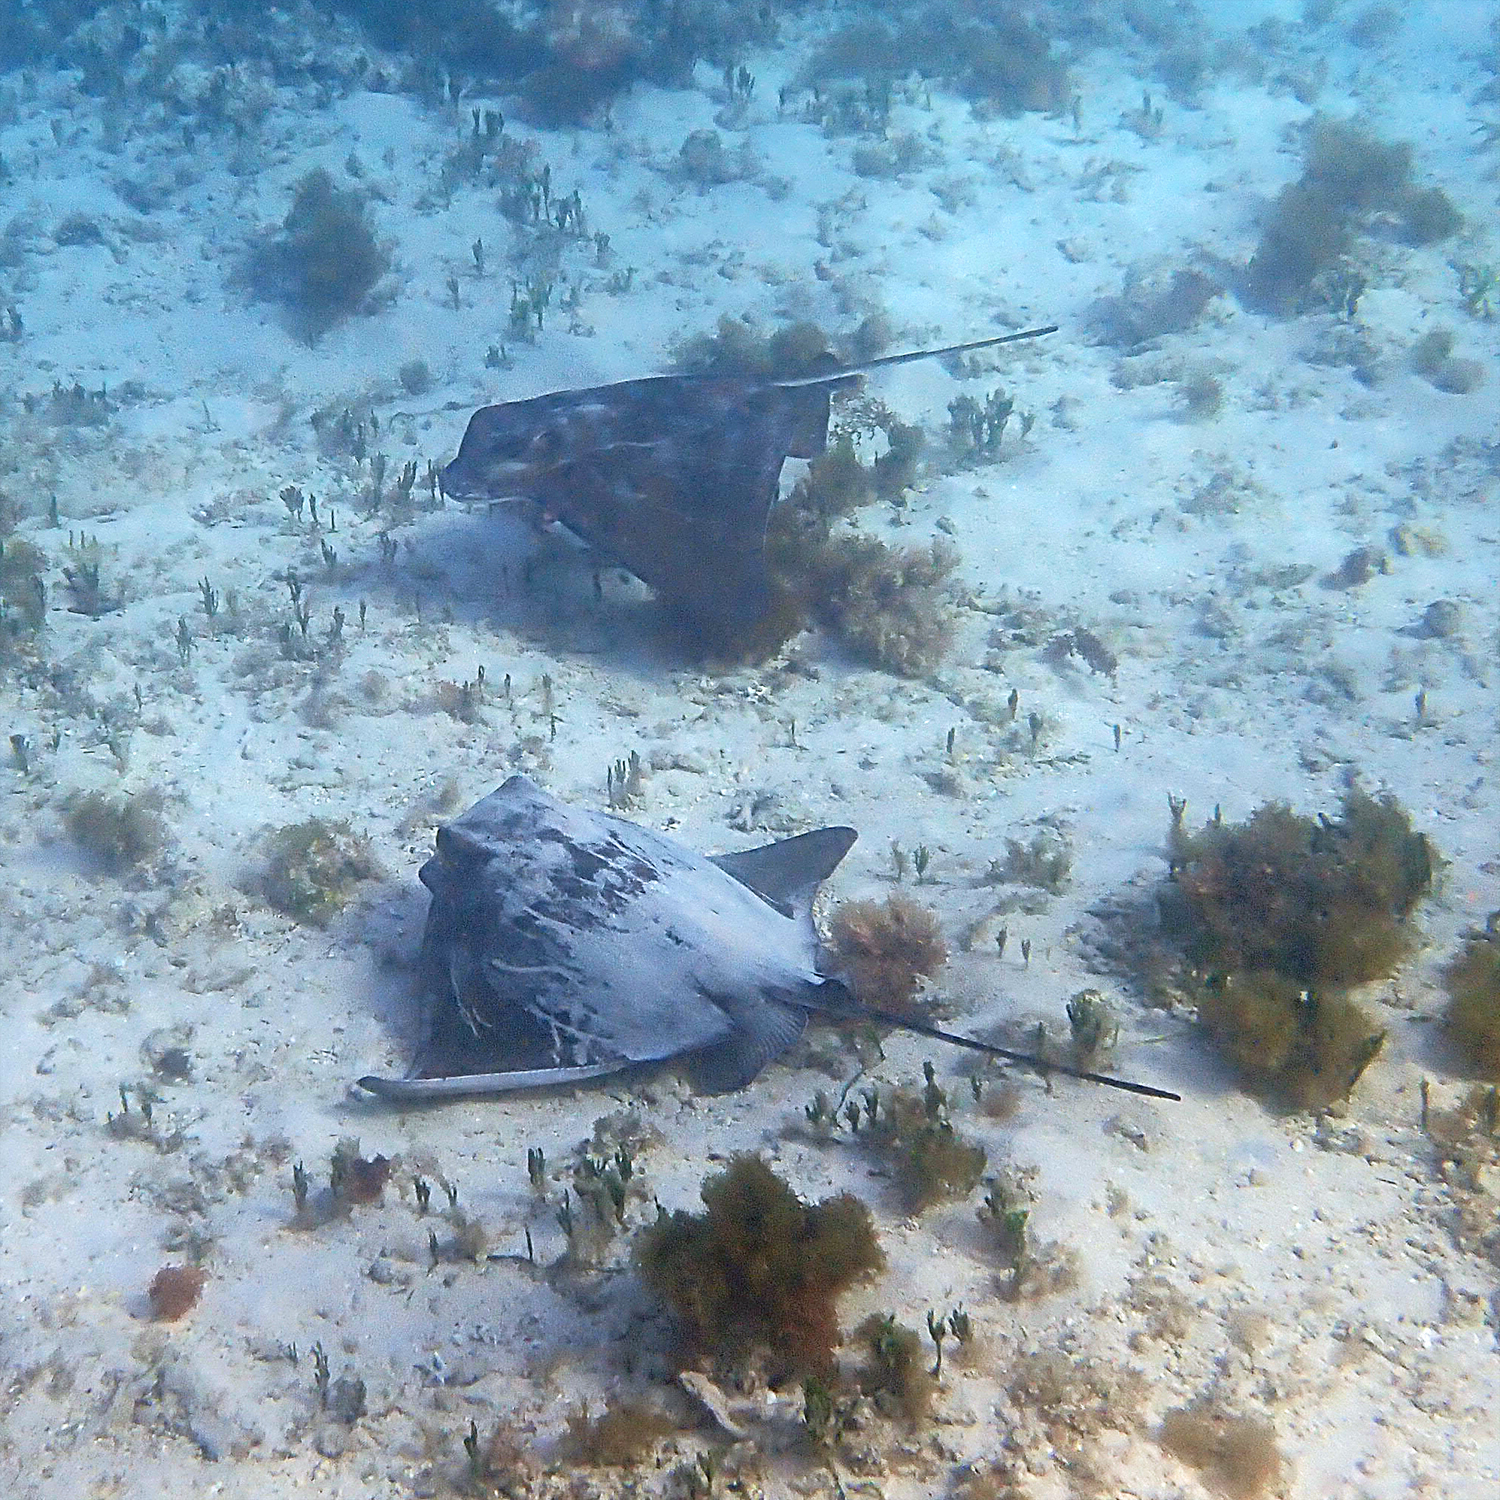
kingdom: Animalia
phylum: Chordata
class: Elasmobranchii
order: Myliobatiformes
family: Myliobatidae
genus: Myliobatis
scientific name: Myliobatis tenuicaudatus
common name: Eagle ray
